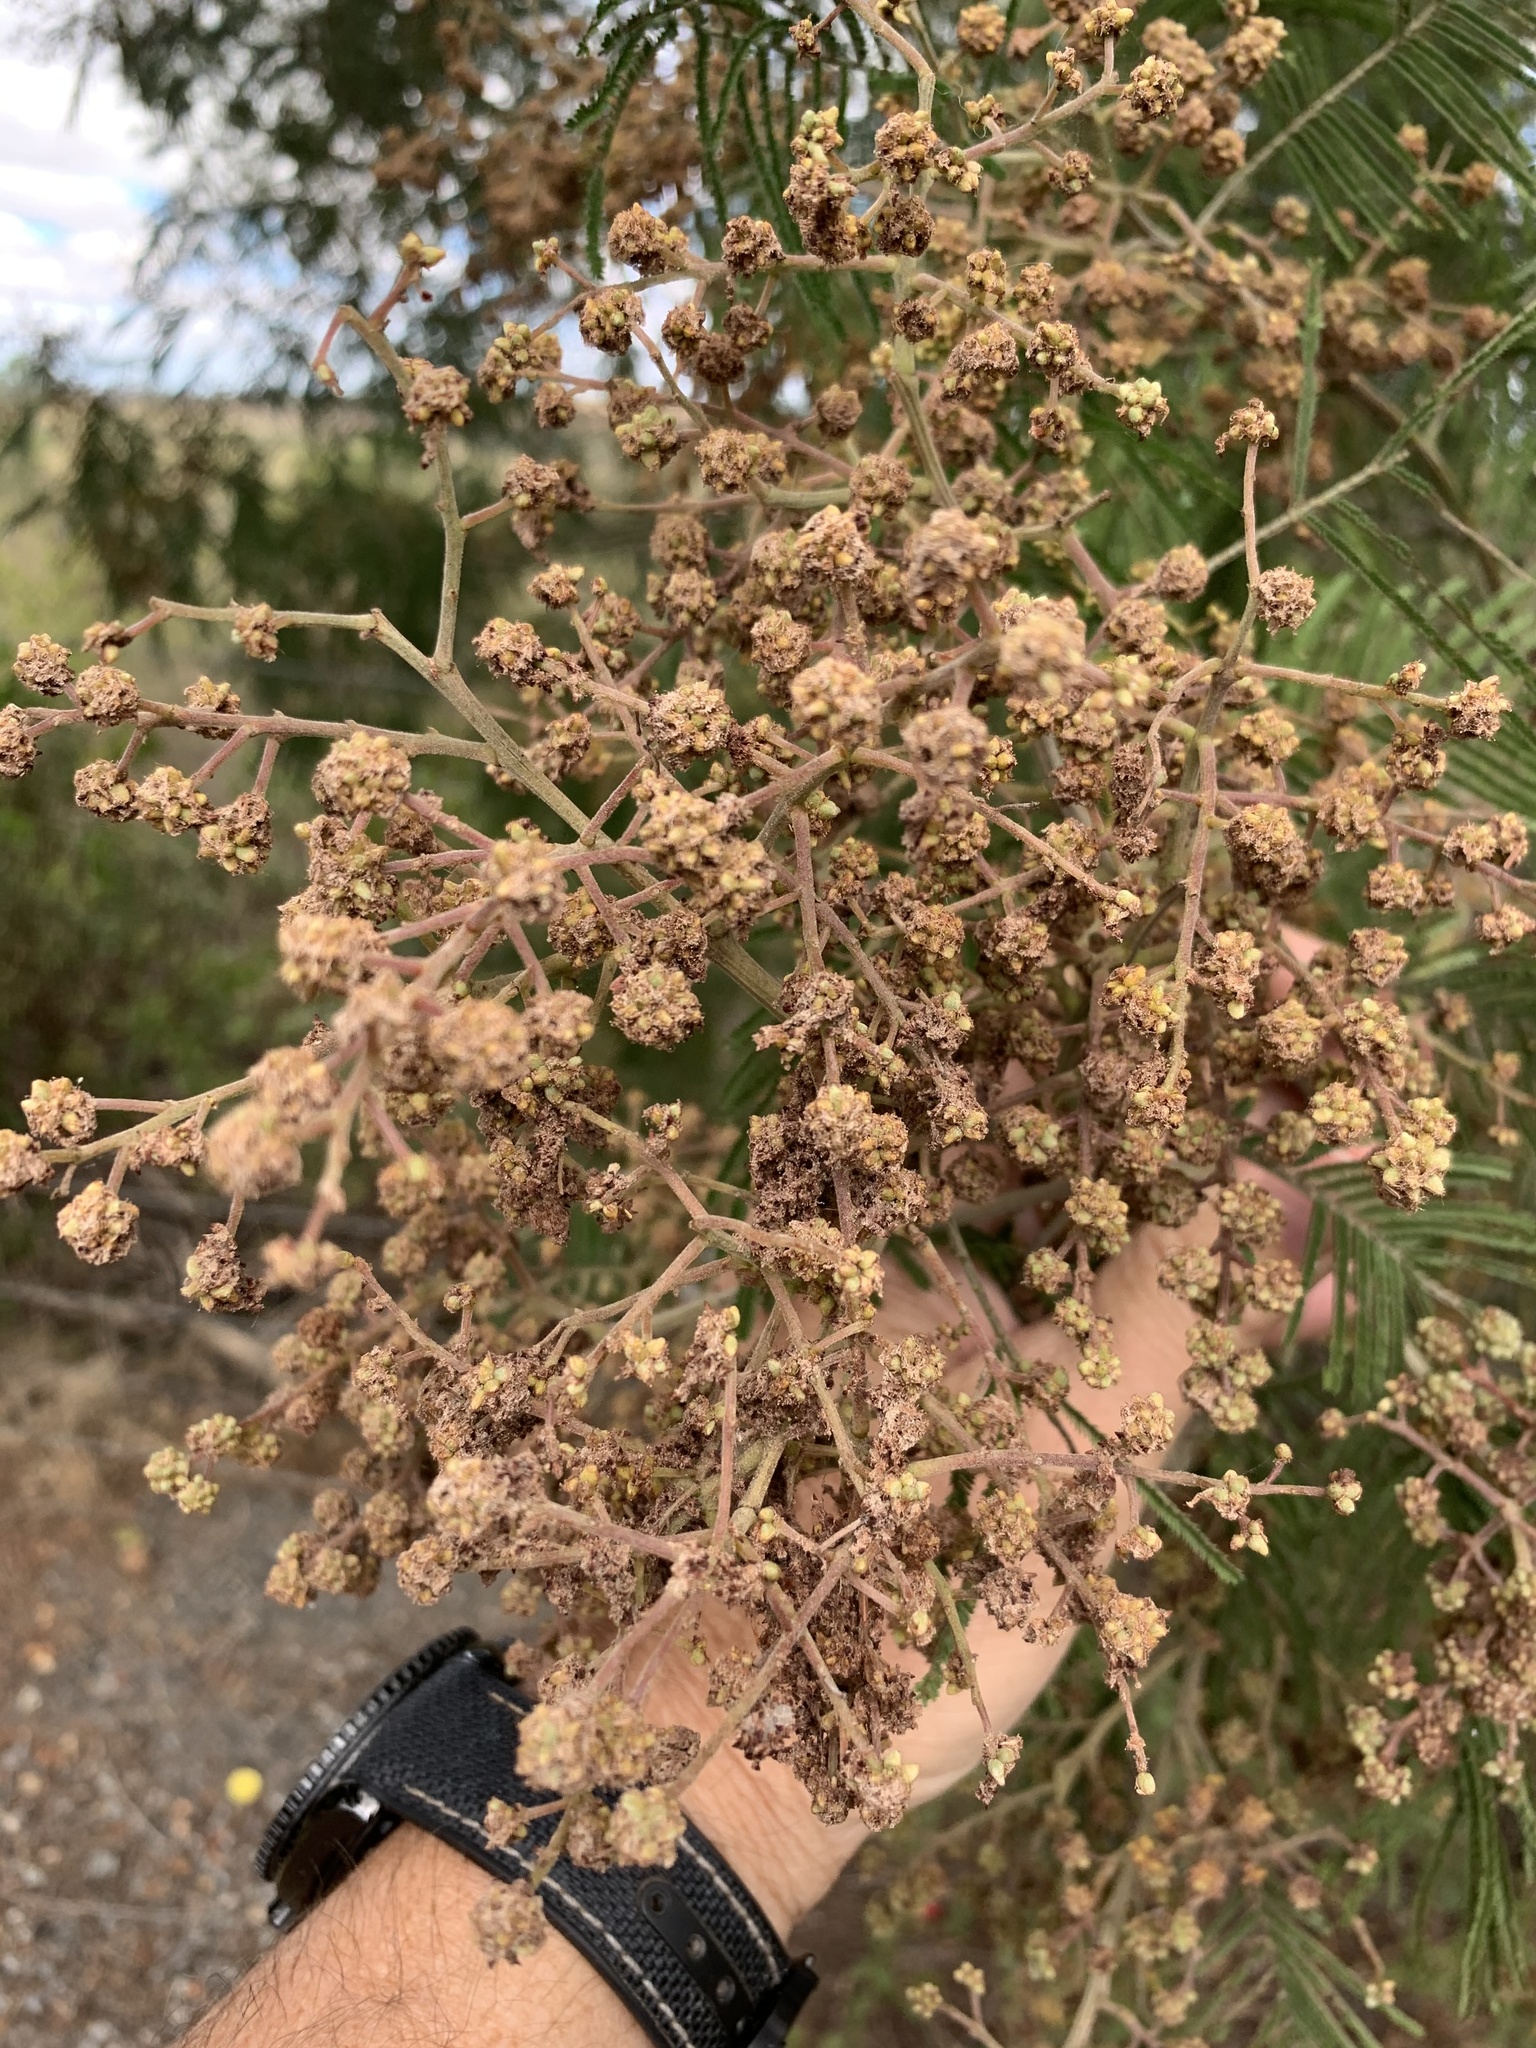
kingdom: Animalia
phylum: Arthropoda
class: Insecta
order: Diptera
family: Cecidomyiidae
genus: Dasineura
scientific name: Dasineura rubiformis
